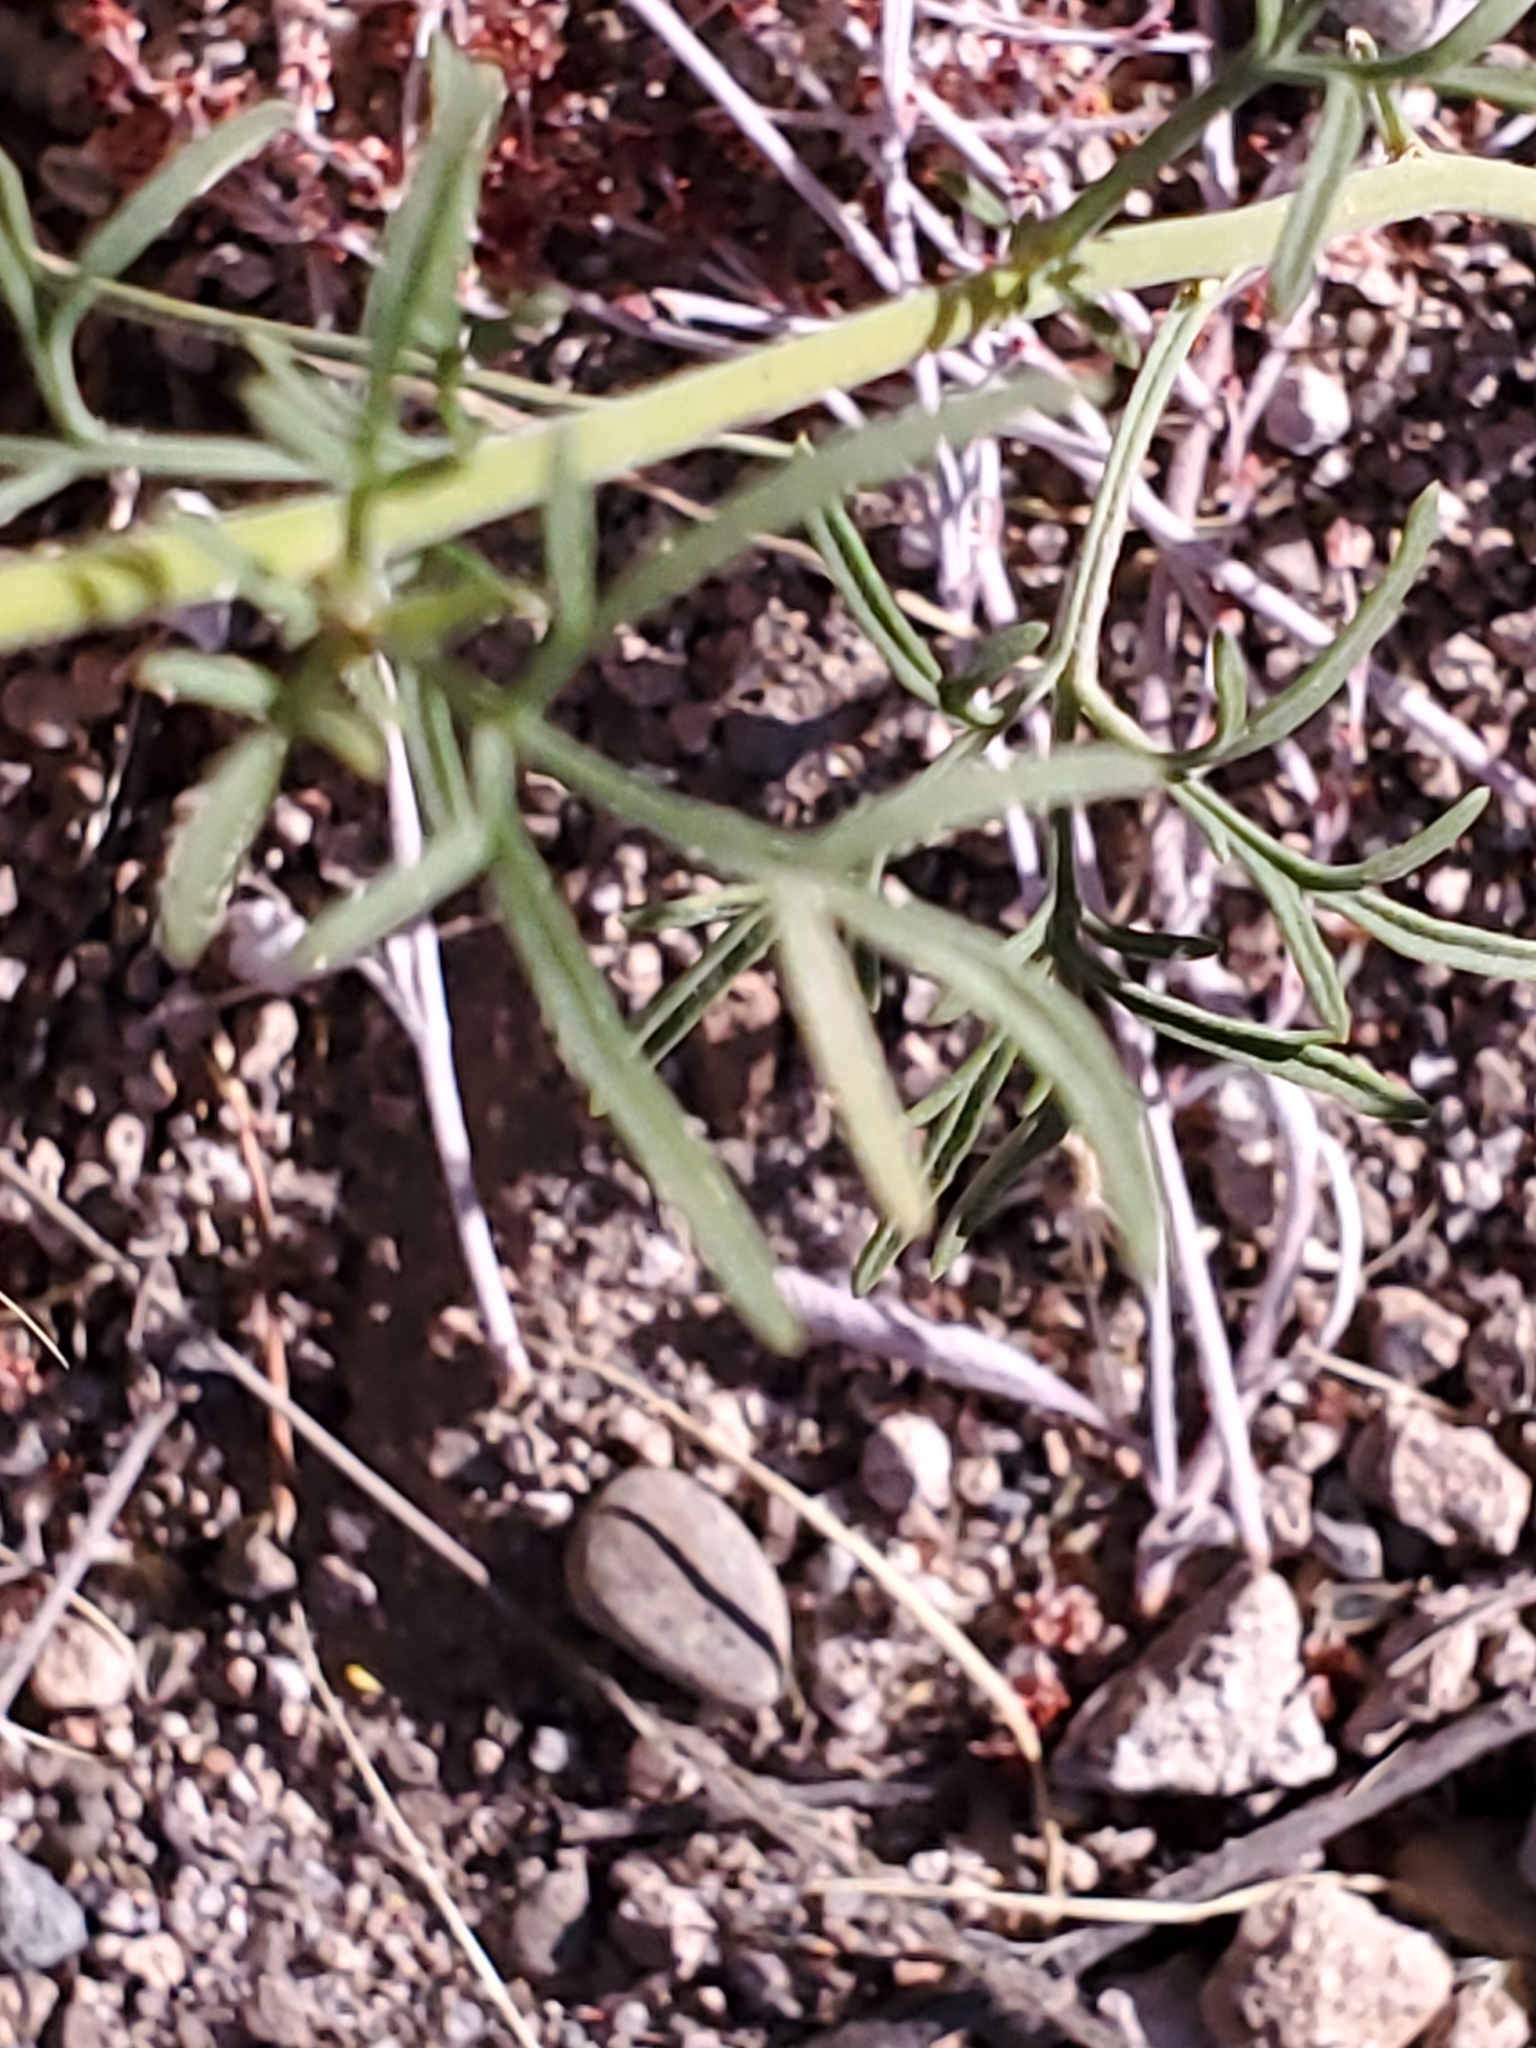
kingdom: Plantae
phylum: Tracheophyta
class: Magnoliopsida
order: Asterales
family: Asteraceae
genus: Hymenothrix
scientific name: Hymenothrix wislizeni
